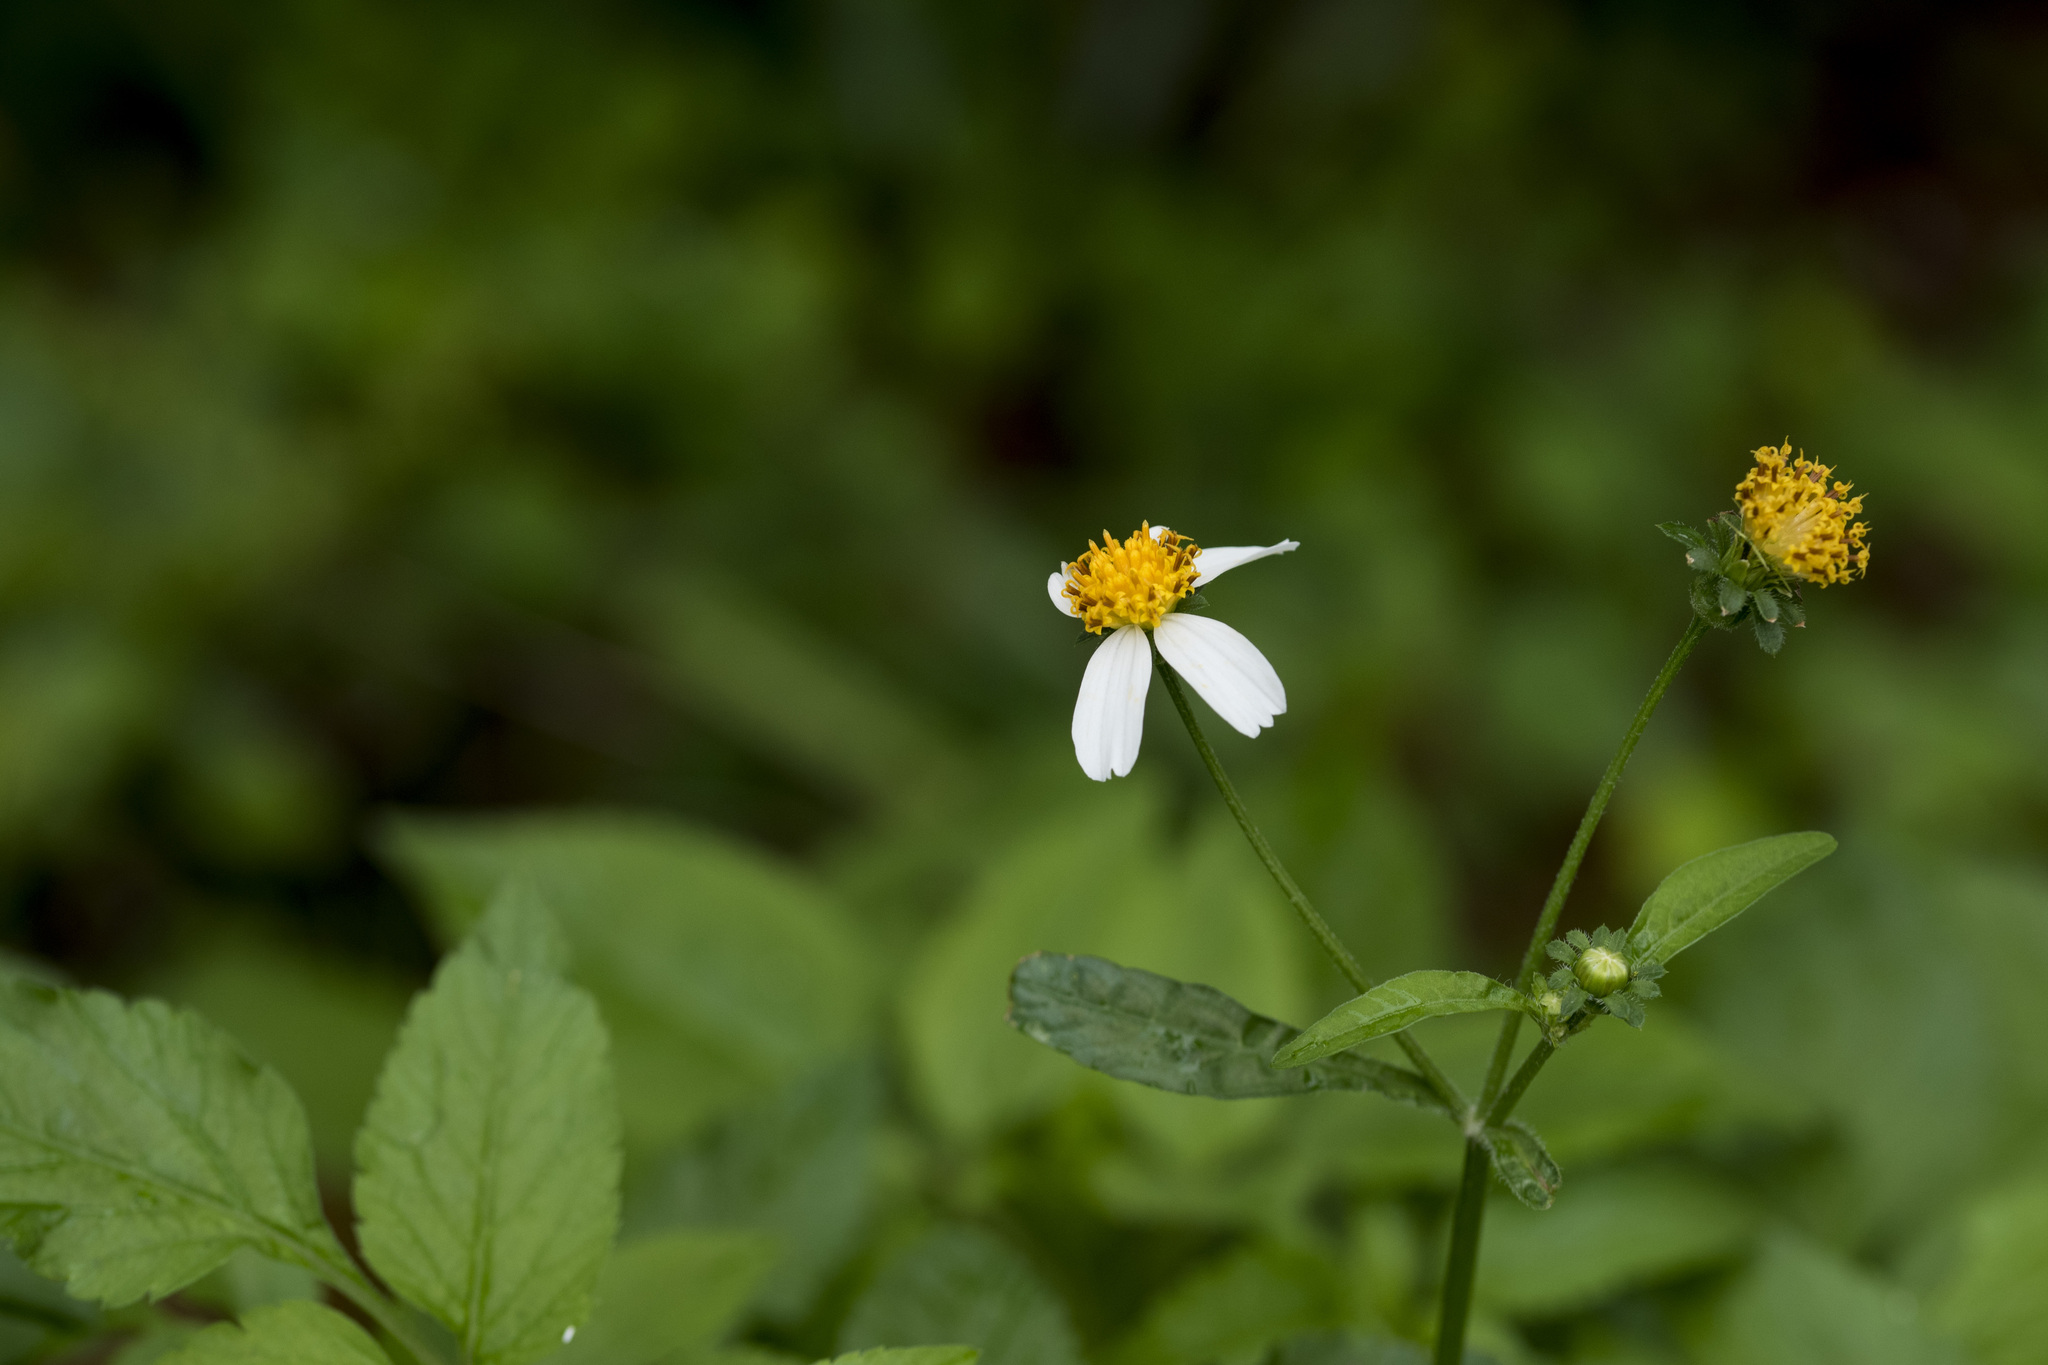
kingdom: Plantae
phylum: Tracheophyta
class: Magnoliopsida
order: Asterales
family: Asteraceae
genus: Bidens
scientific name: Bidens alba
